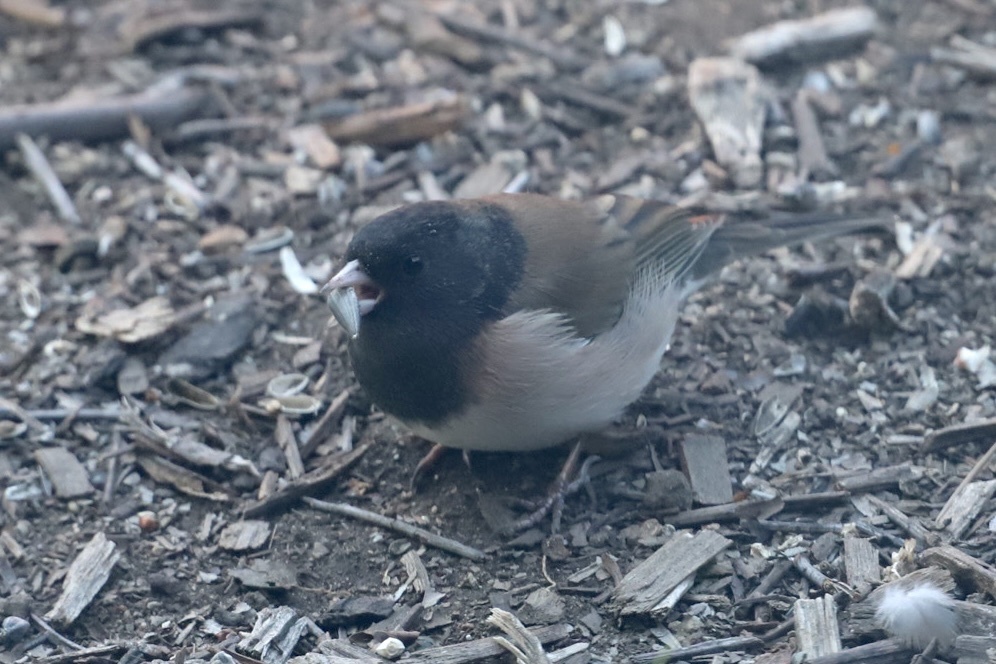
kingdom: Animalia
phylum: Chordata
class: Aves
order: Passeriformes
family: Passerellidae
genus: Junco
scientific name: Junco hyemalis
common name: Dark-eyed junco
